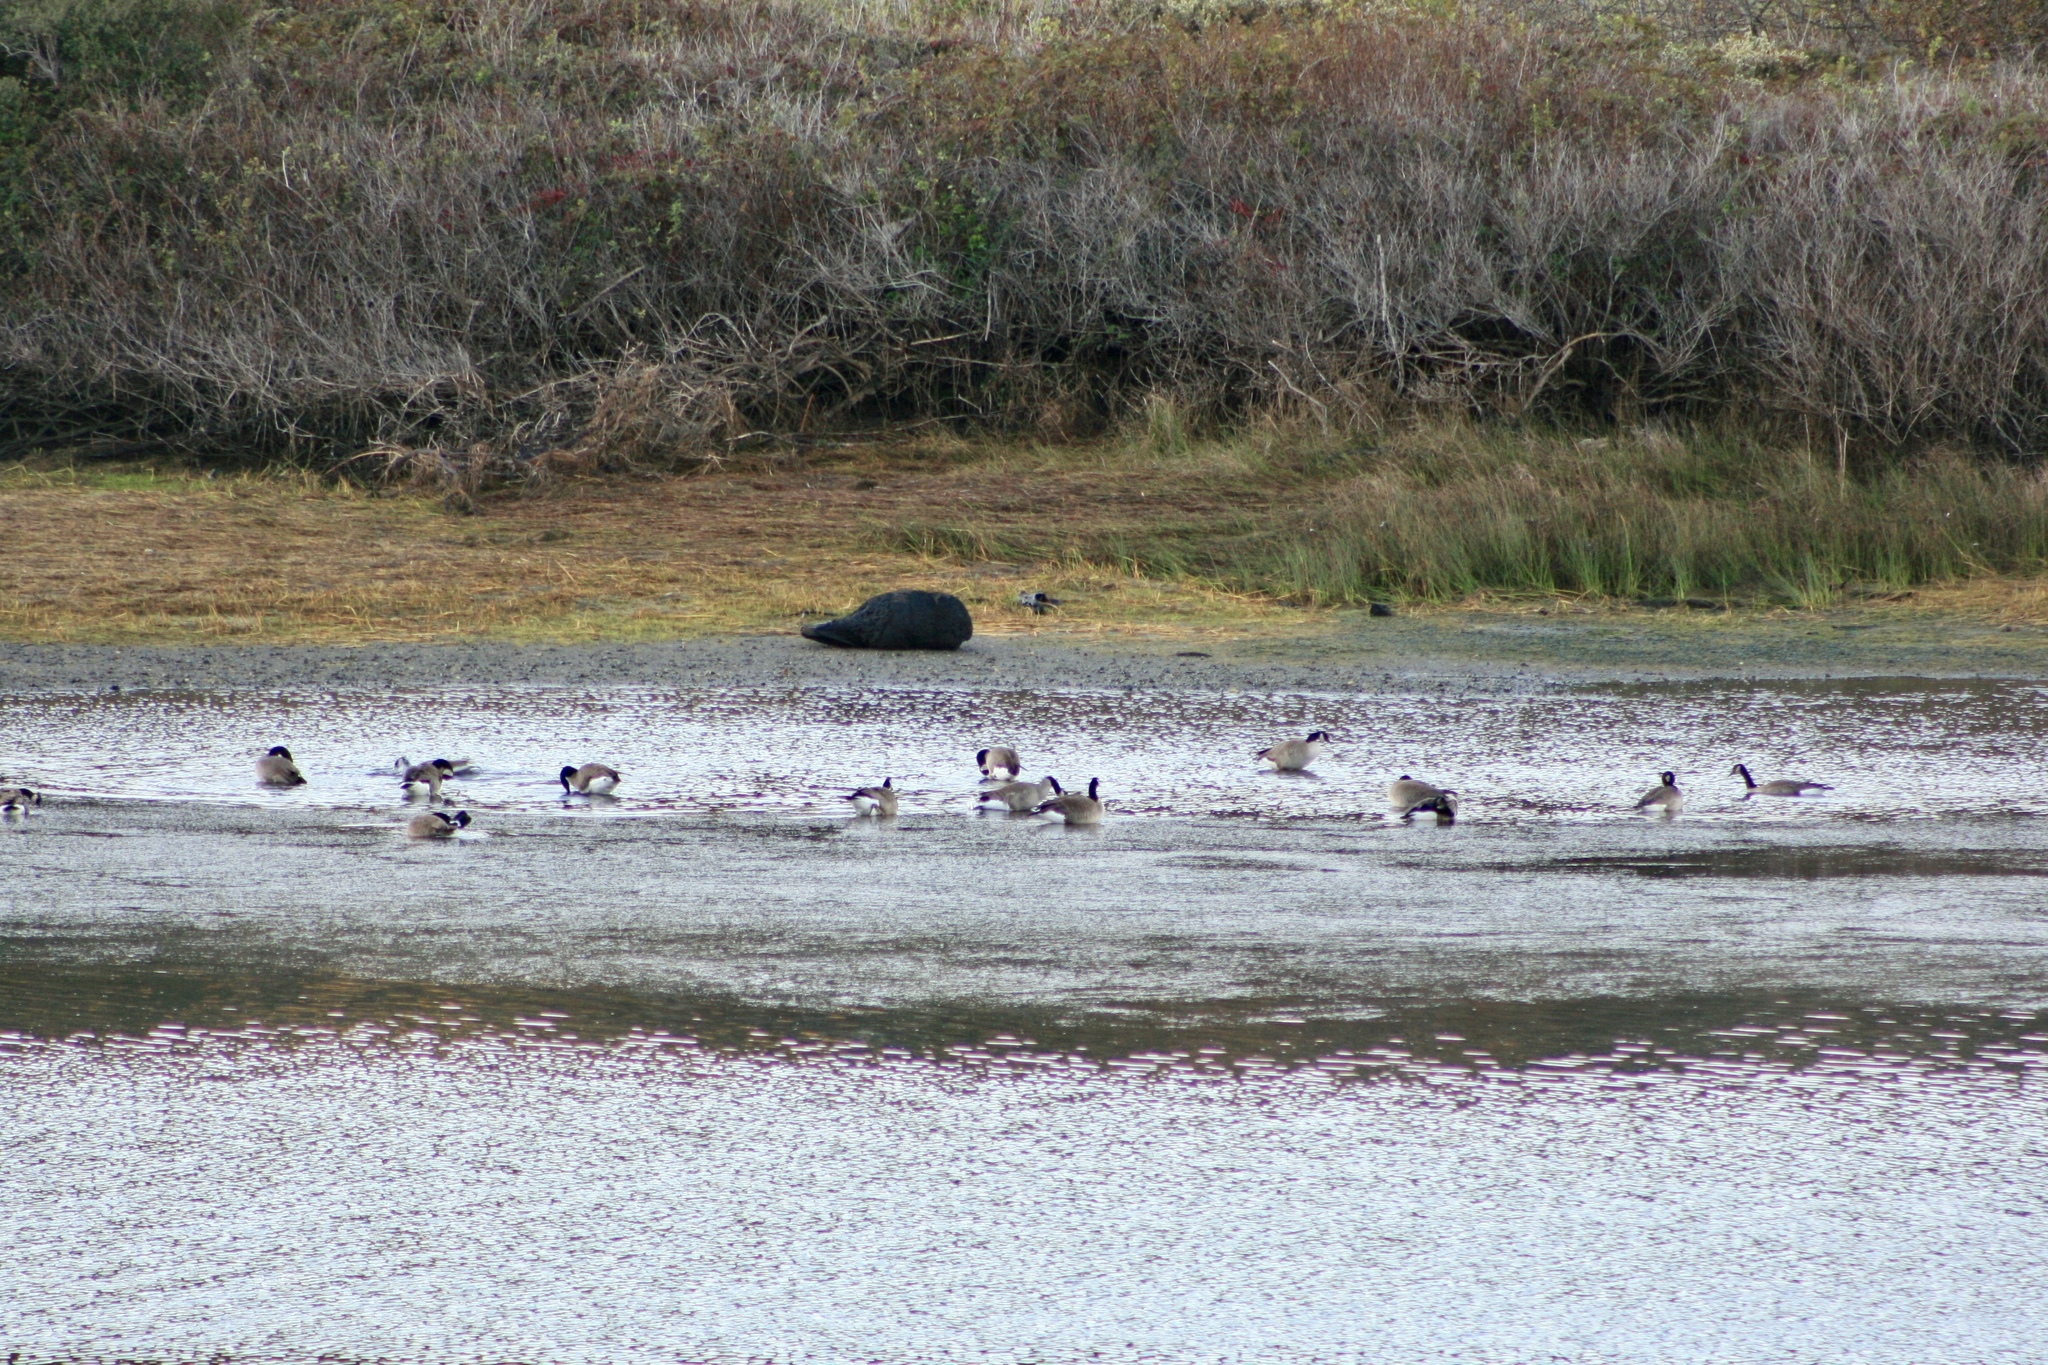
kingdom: Animalia
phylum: Chordata
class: Aves
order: Anseriformes
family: Anatidae
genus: Branta
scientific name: Branta canadensis
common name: Canada goose
